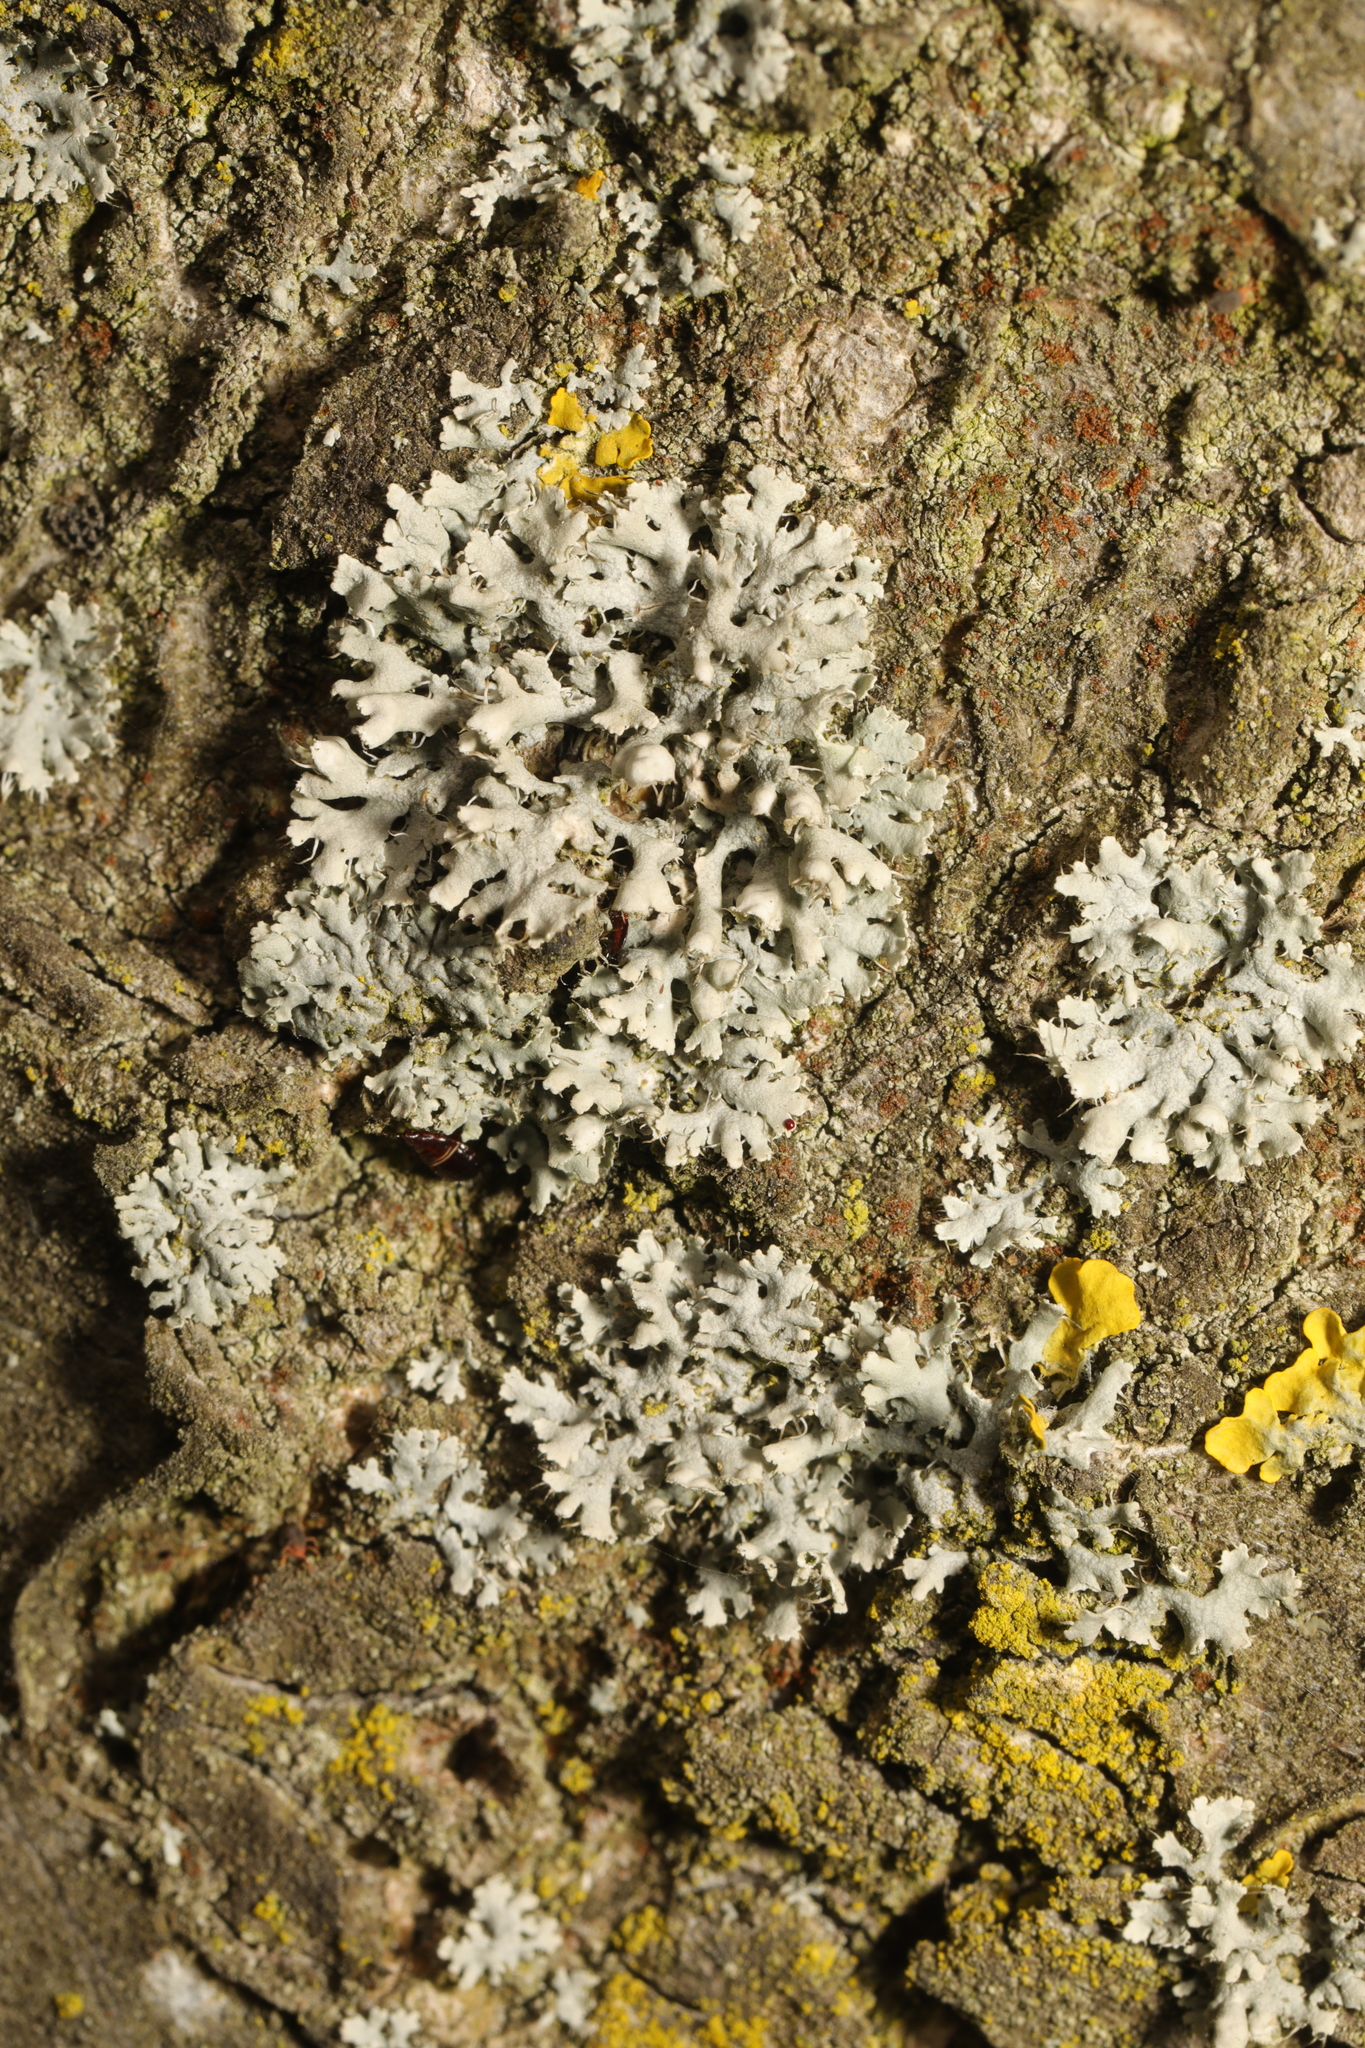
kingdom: Fungi
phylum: Ascomycota
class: Lecanoromycetes
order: Caliciales
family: Physciaceae
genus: Physcia
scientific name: Physcia adscendens
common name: Hooded rosette lichen
